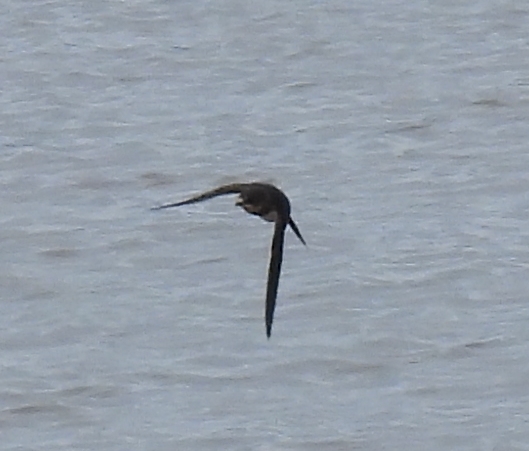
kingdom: Animalia
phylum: Chordata
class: Aves
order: Passeriformes
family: Hirundinidae
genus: Riparia
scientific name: Riparia riparia
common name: Sand martin
